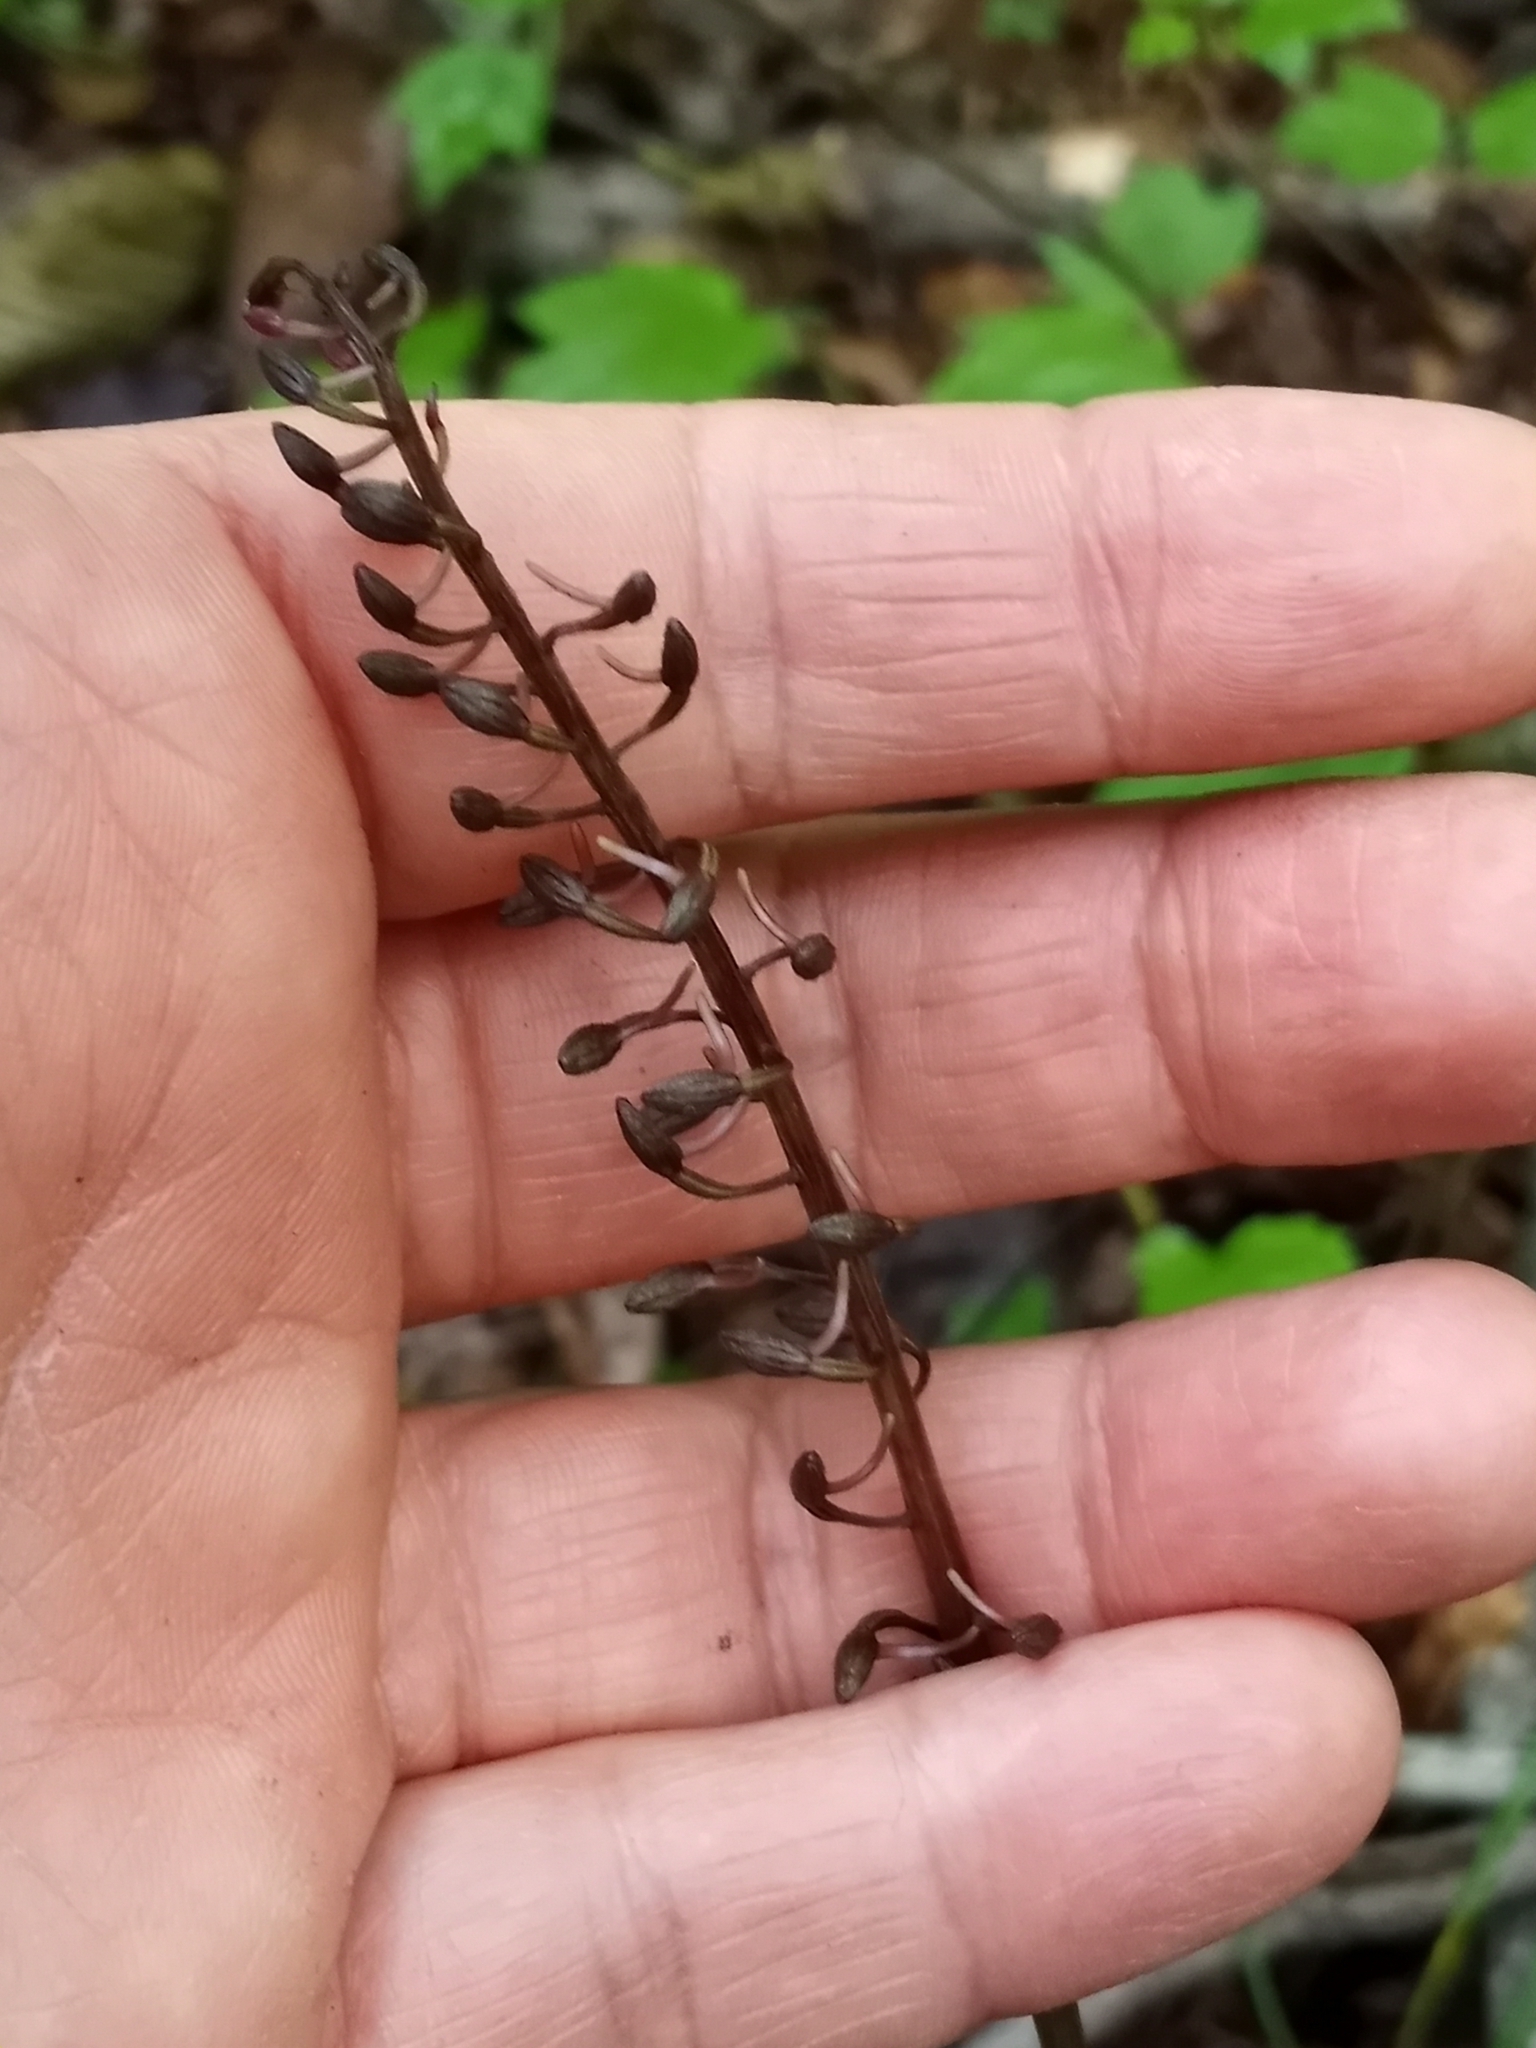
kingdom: Plantae
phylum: Tracheophyta
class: Liliopsida
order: Asparagales
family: Orchidaceae
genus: Tipularia
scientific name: Tipularia discolor
